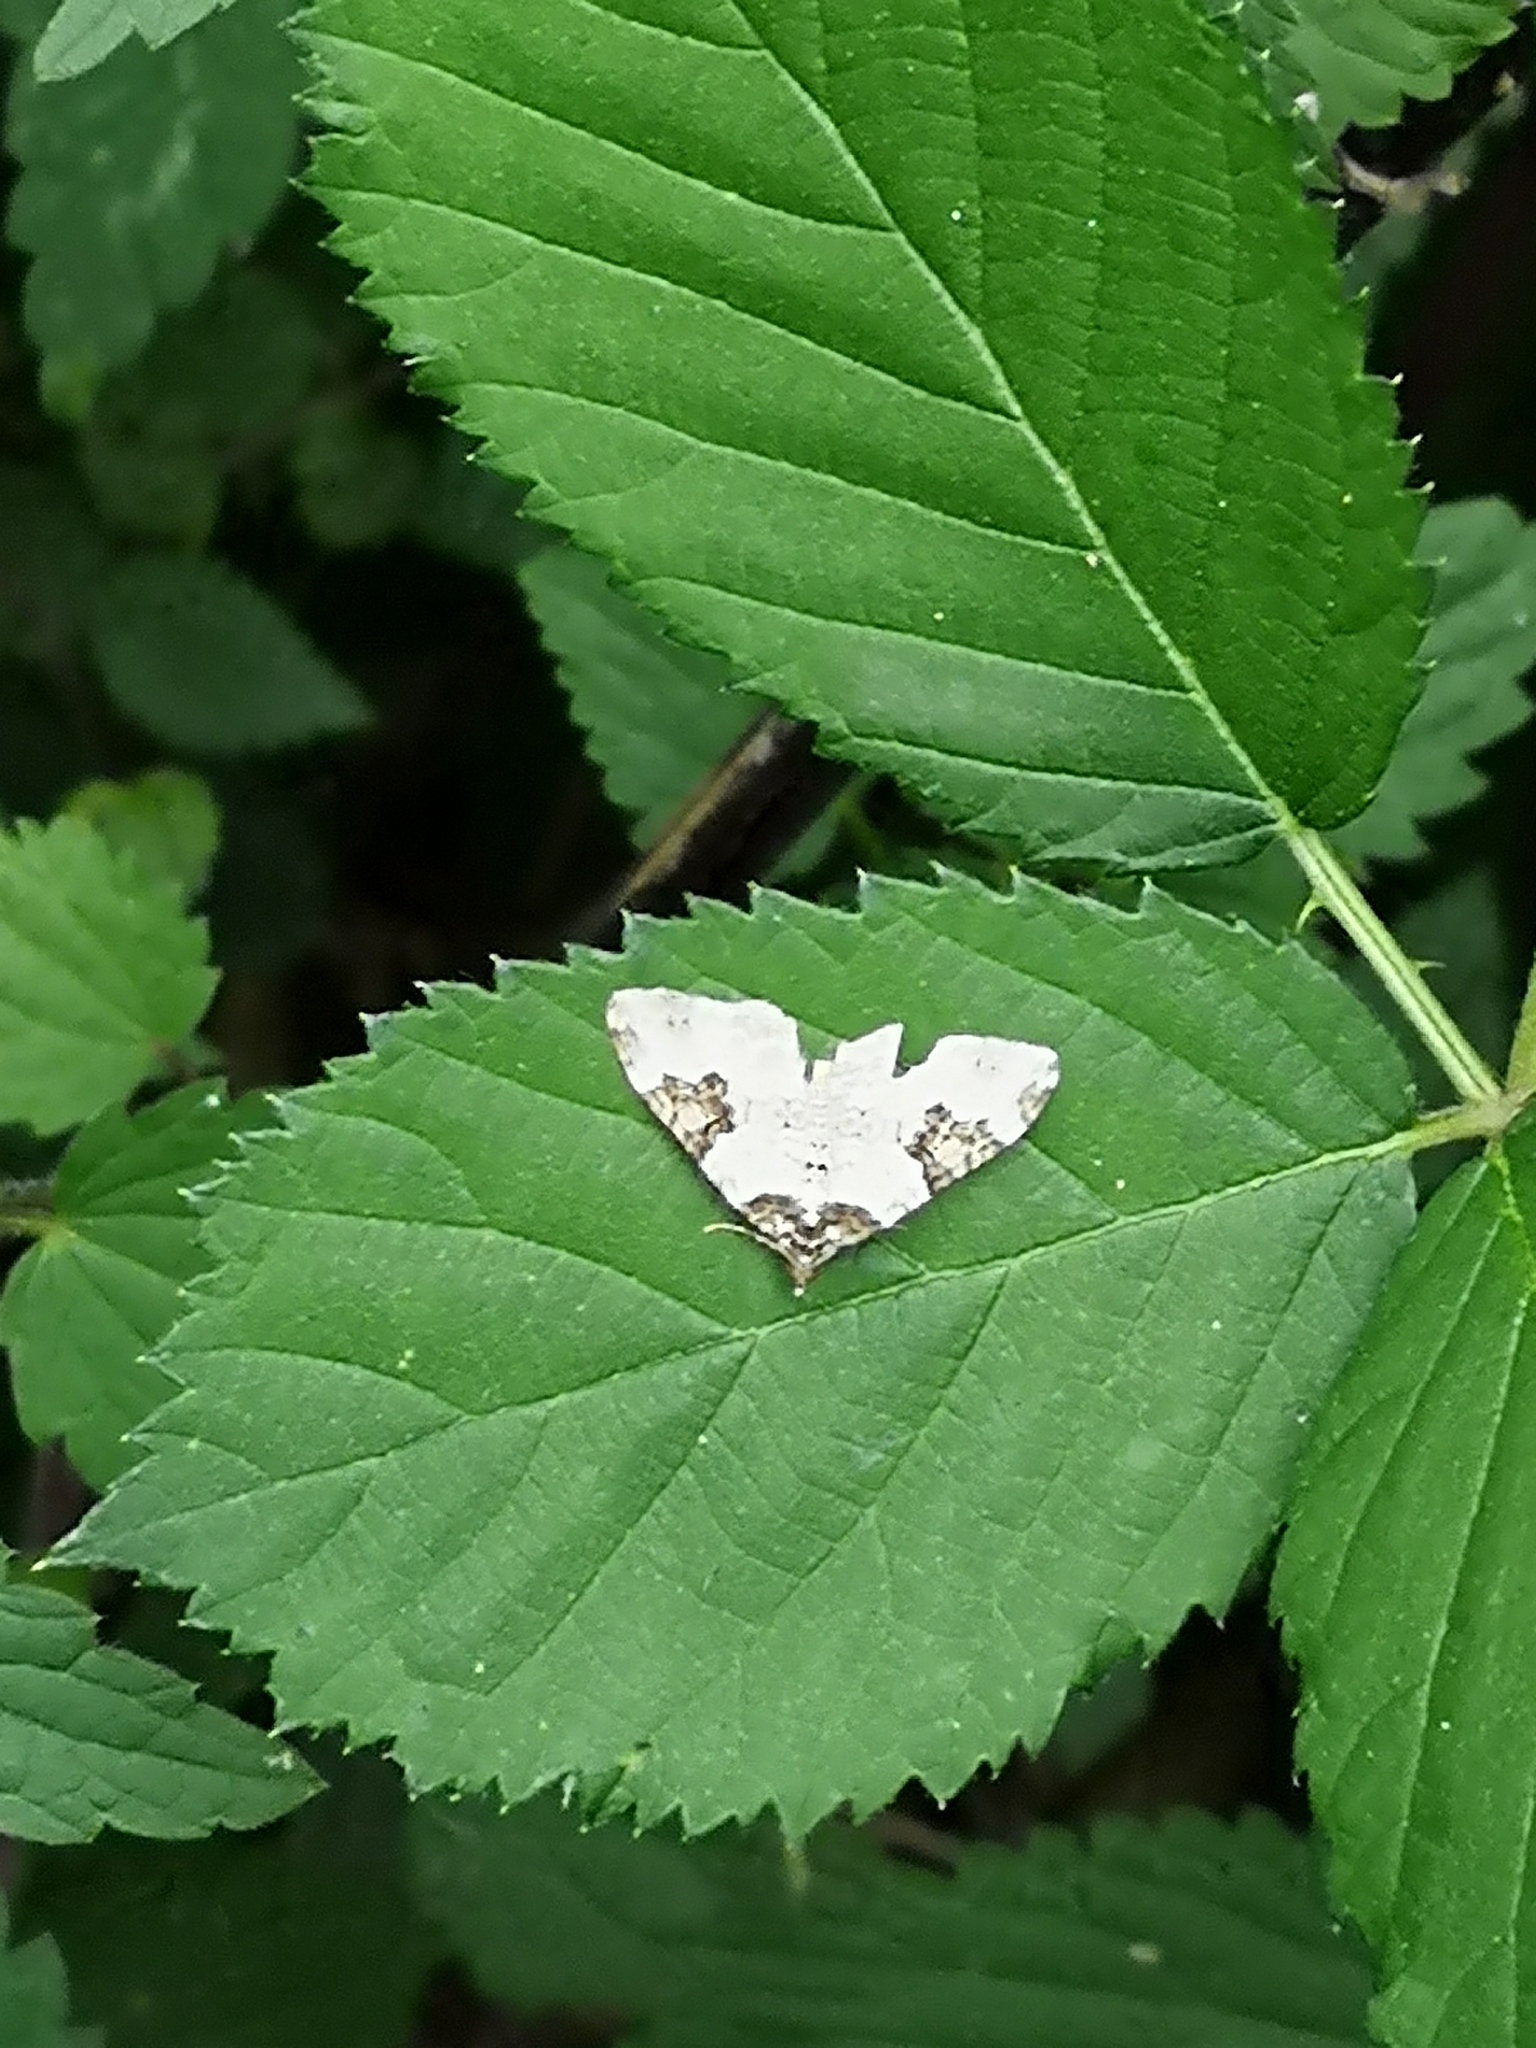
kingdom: Animalia
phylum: Arthropoda
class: Insecta
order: Lepidoptera
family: Geometridae
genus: Xanthorhoe
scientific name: Xanthorhoe fluctuata
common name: Garden carpet
